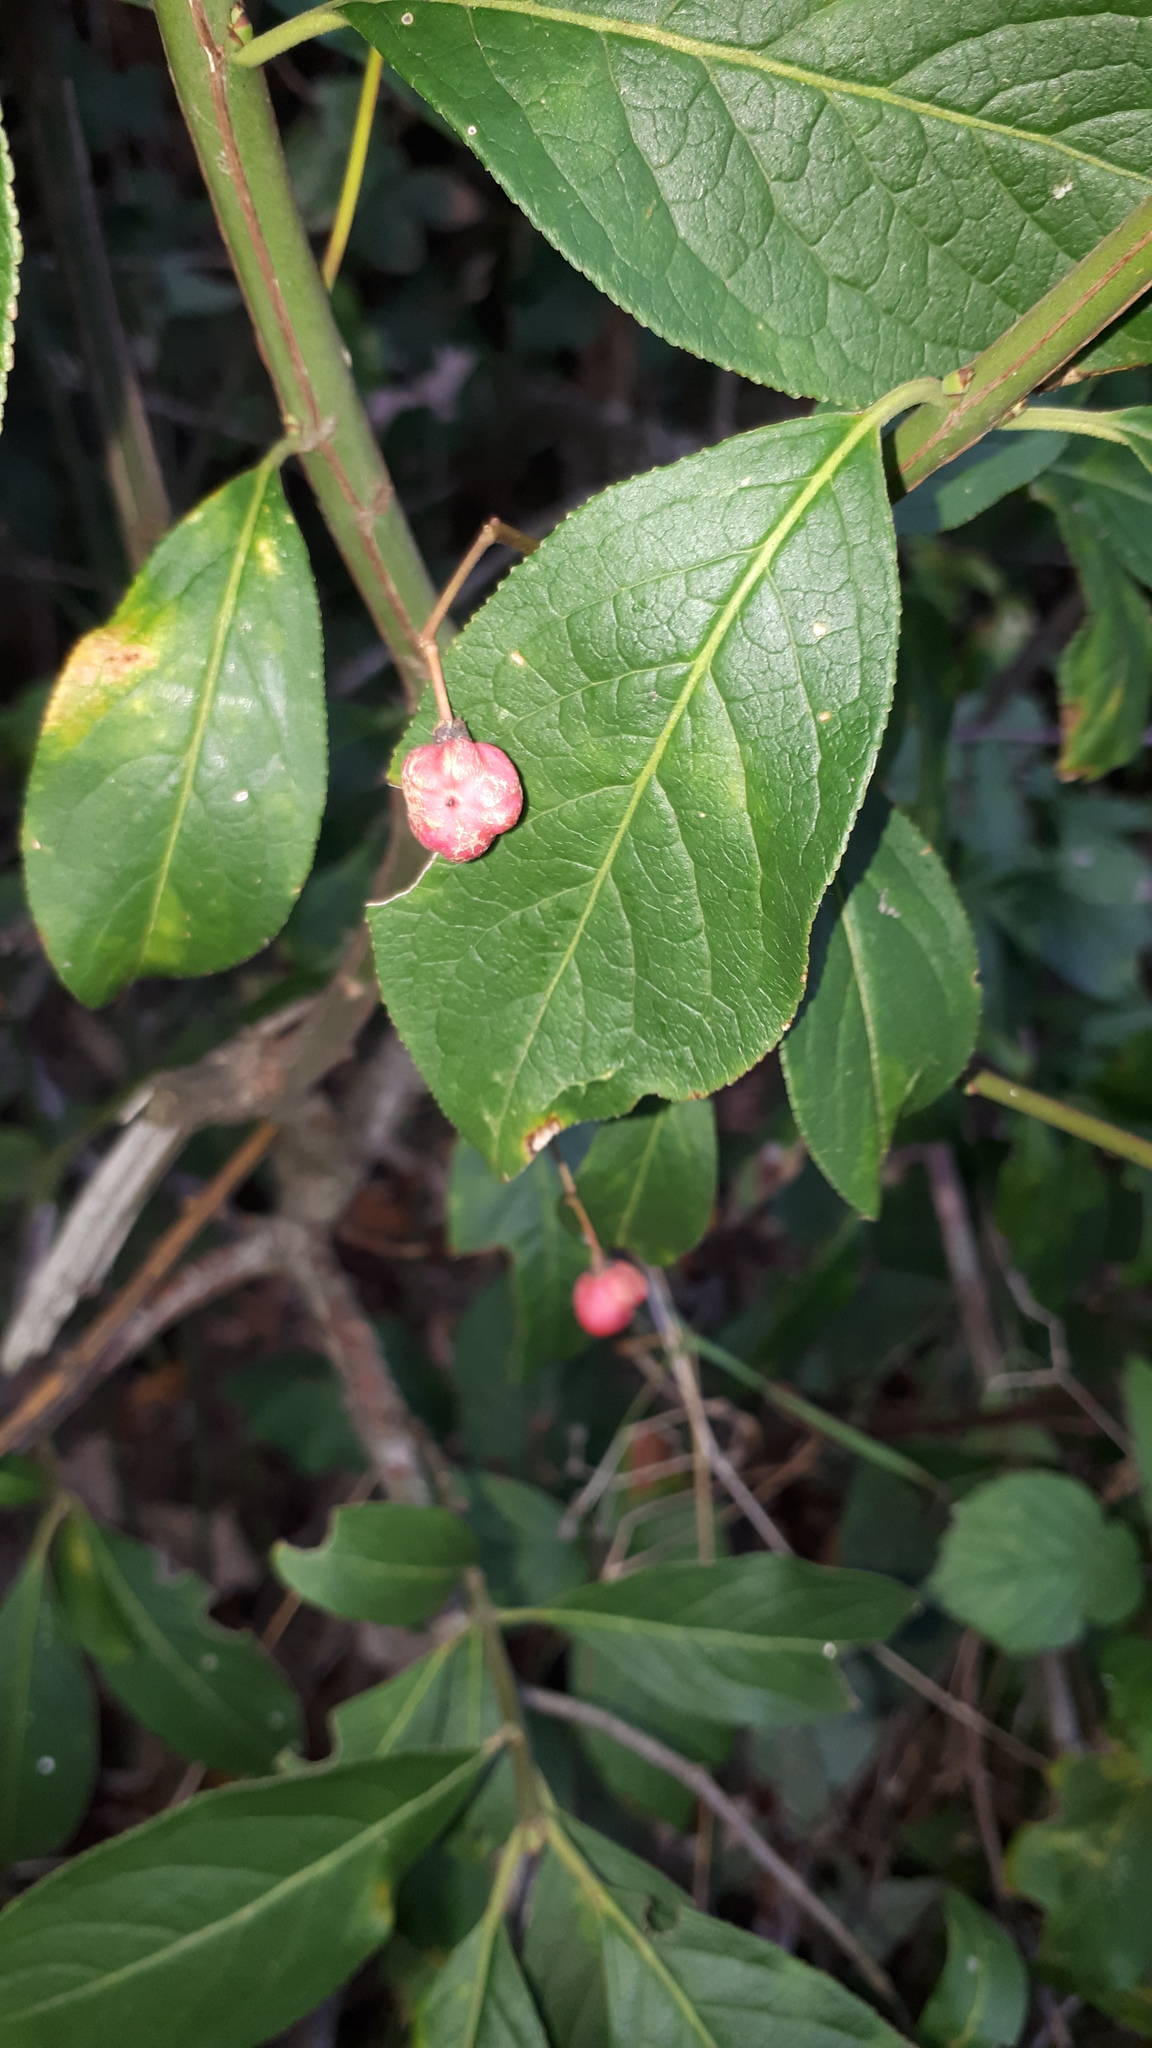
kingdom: Plantae
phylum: Tracheophyta
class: Magnoliopsida
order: Celastrales
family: Celastraceae
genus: Euonymus
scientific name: Euonymus europaeus
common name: Spindle
